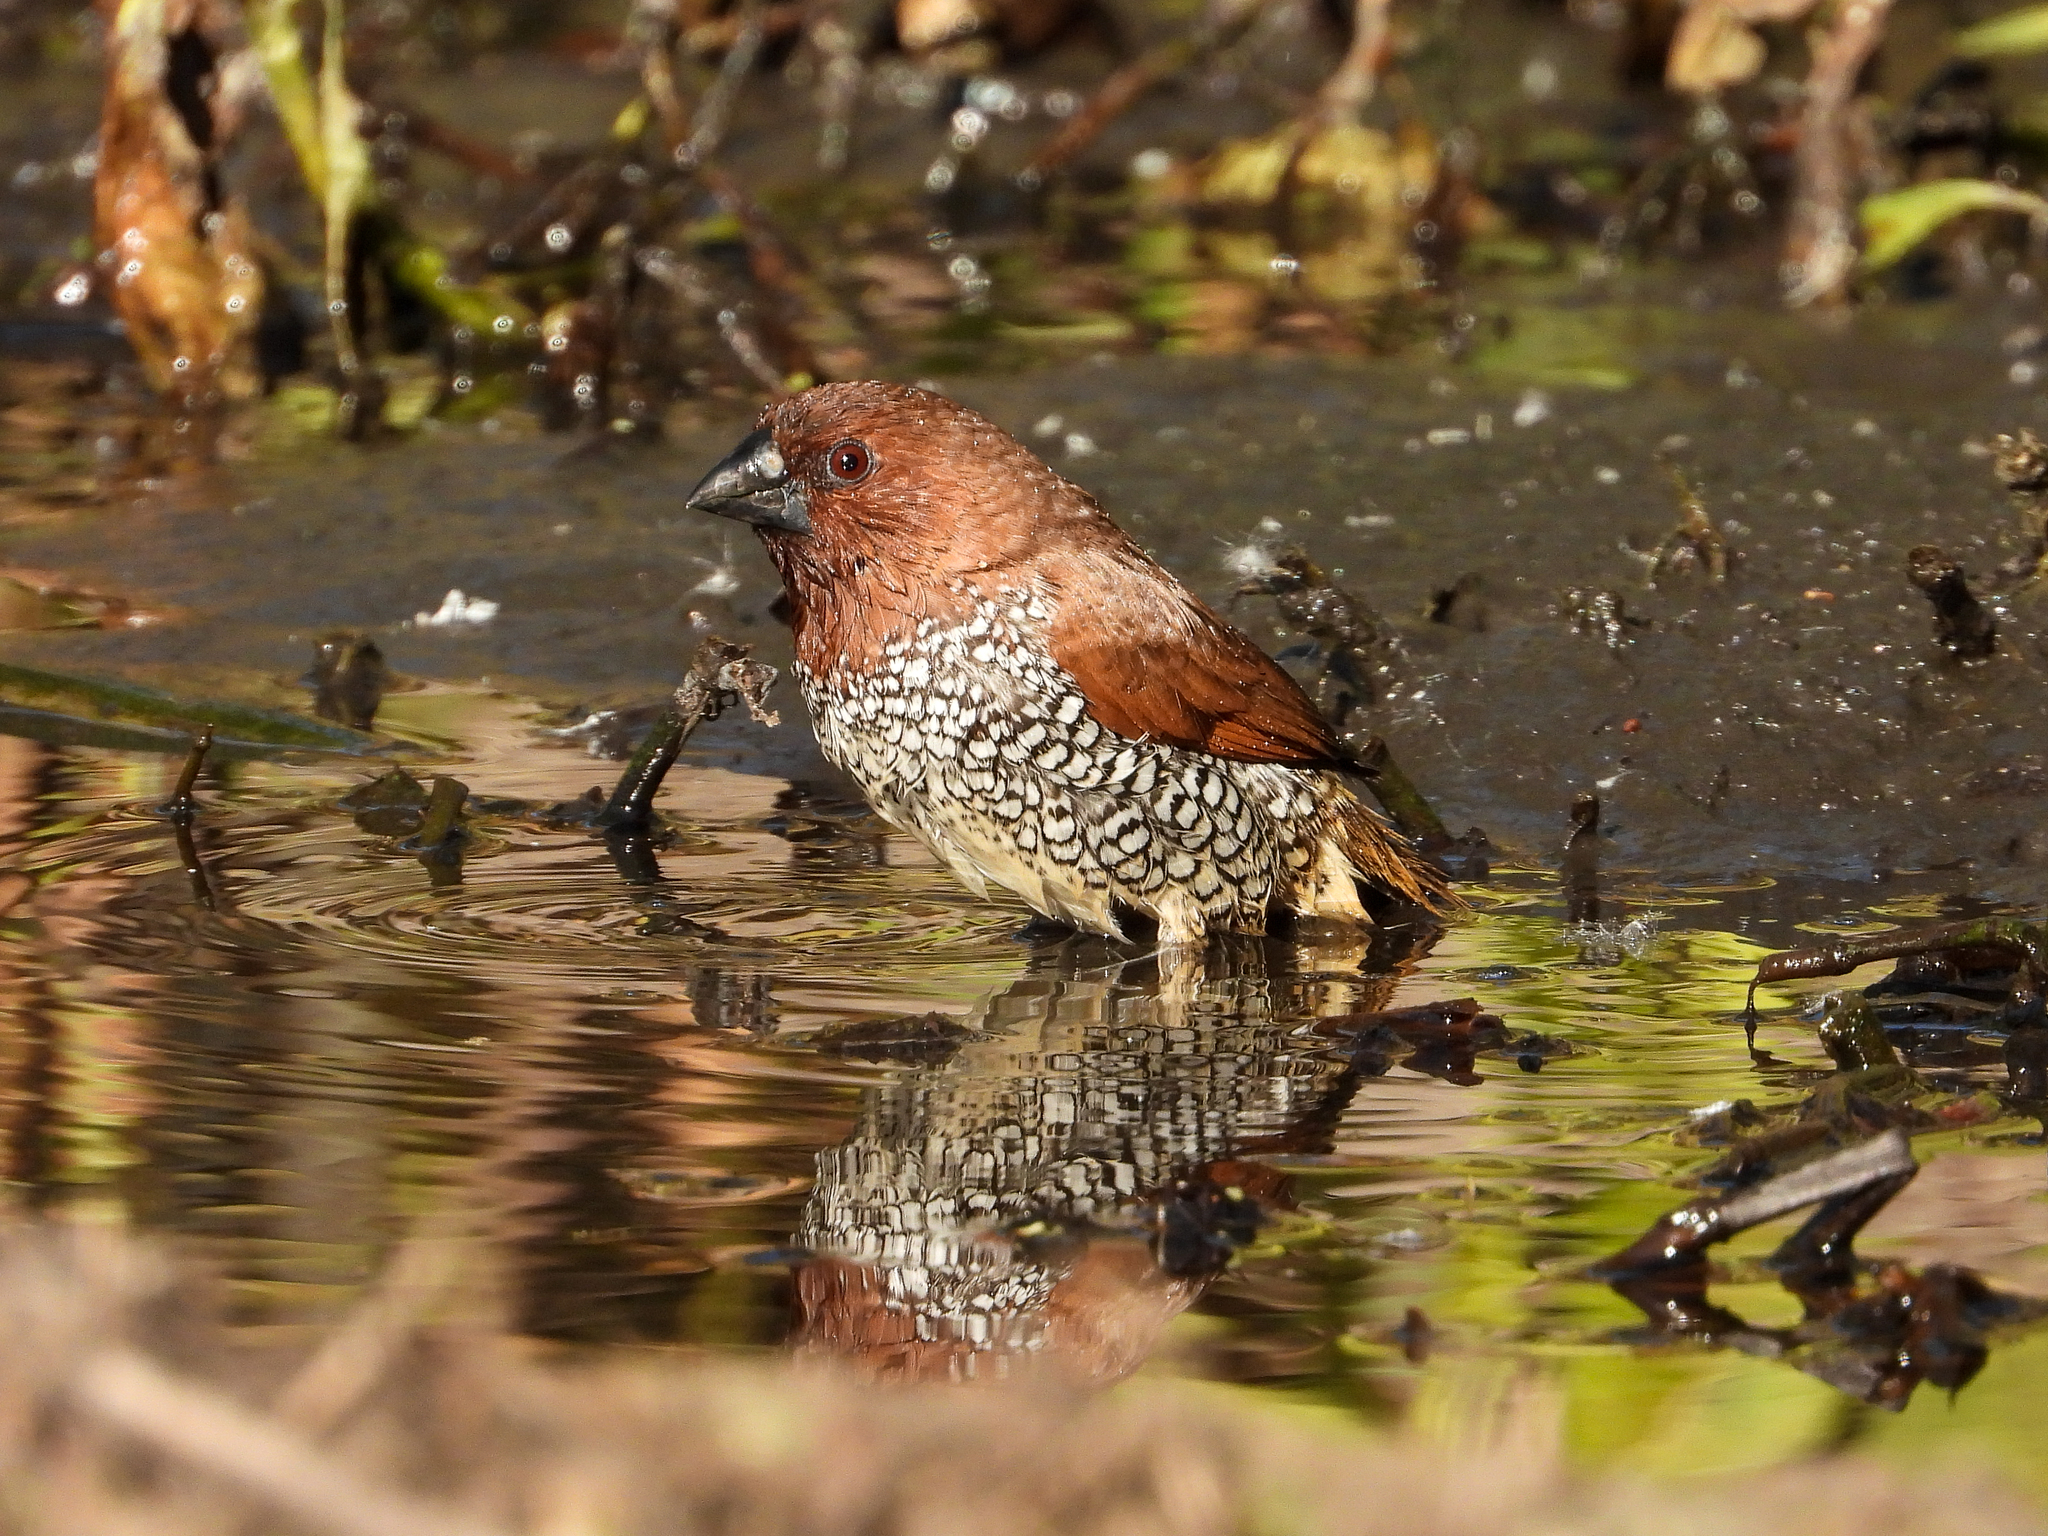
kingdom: Animalia
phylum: Chordata
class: Aves
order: Passeriformes
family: Estrildidae
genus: Lonchura
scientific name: Lonchura punctulata
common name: Scaly-breasted munia
